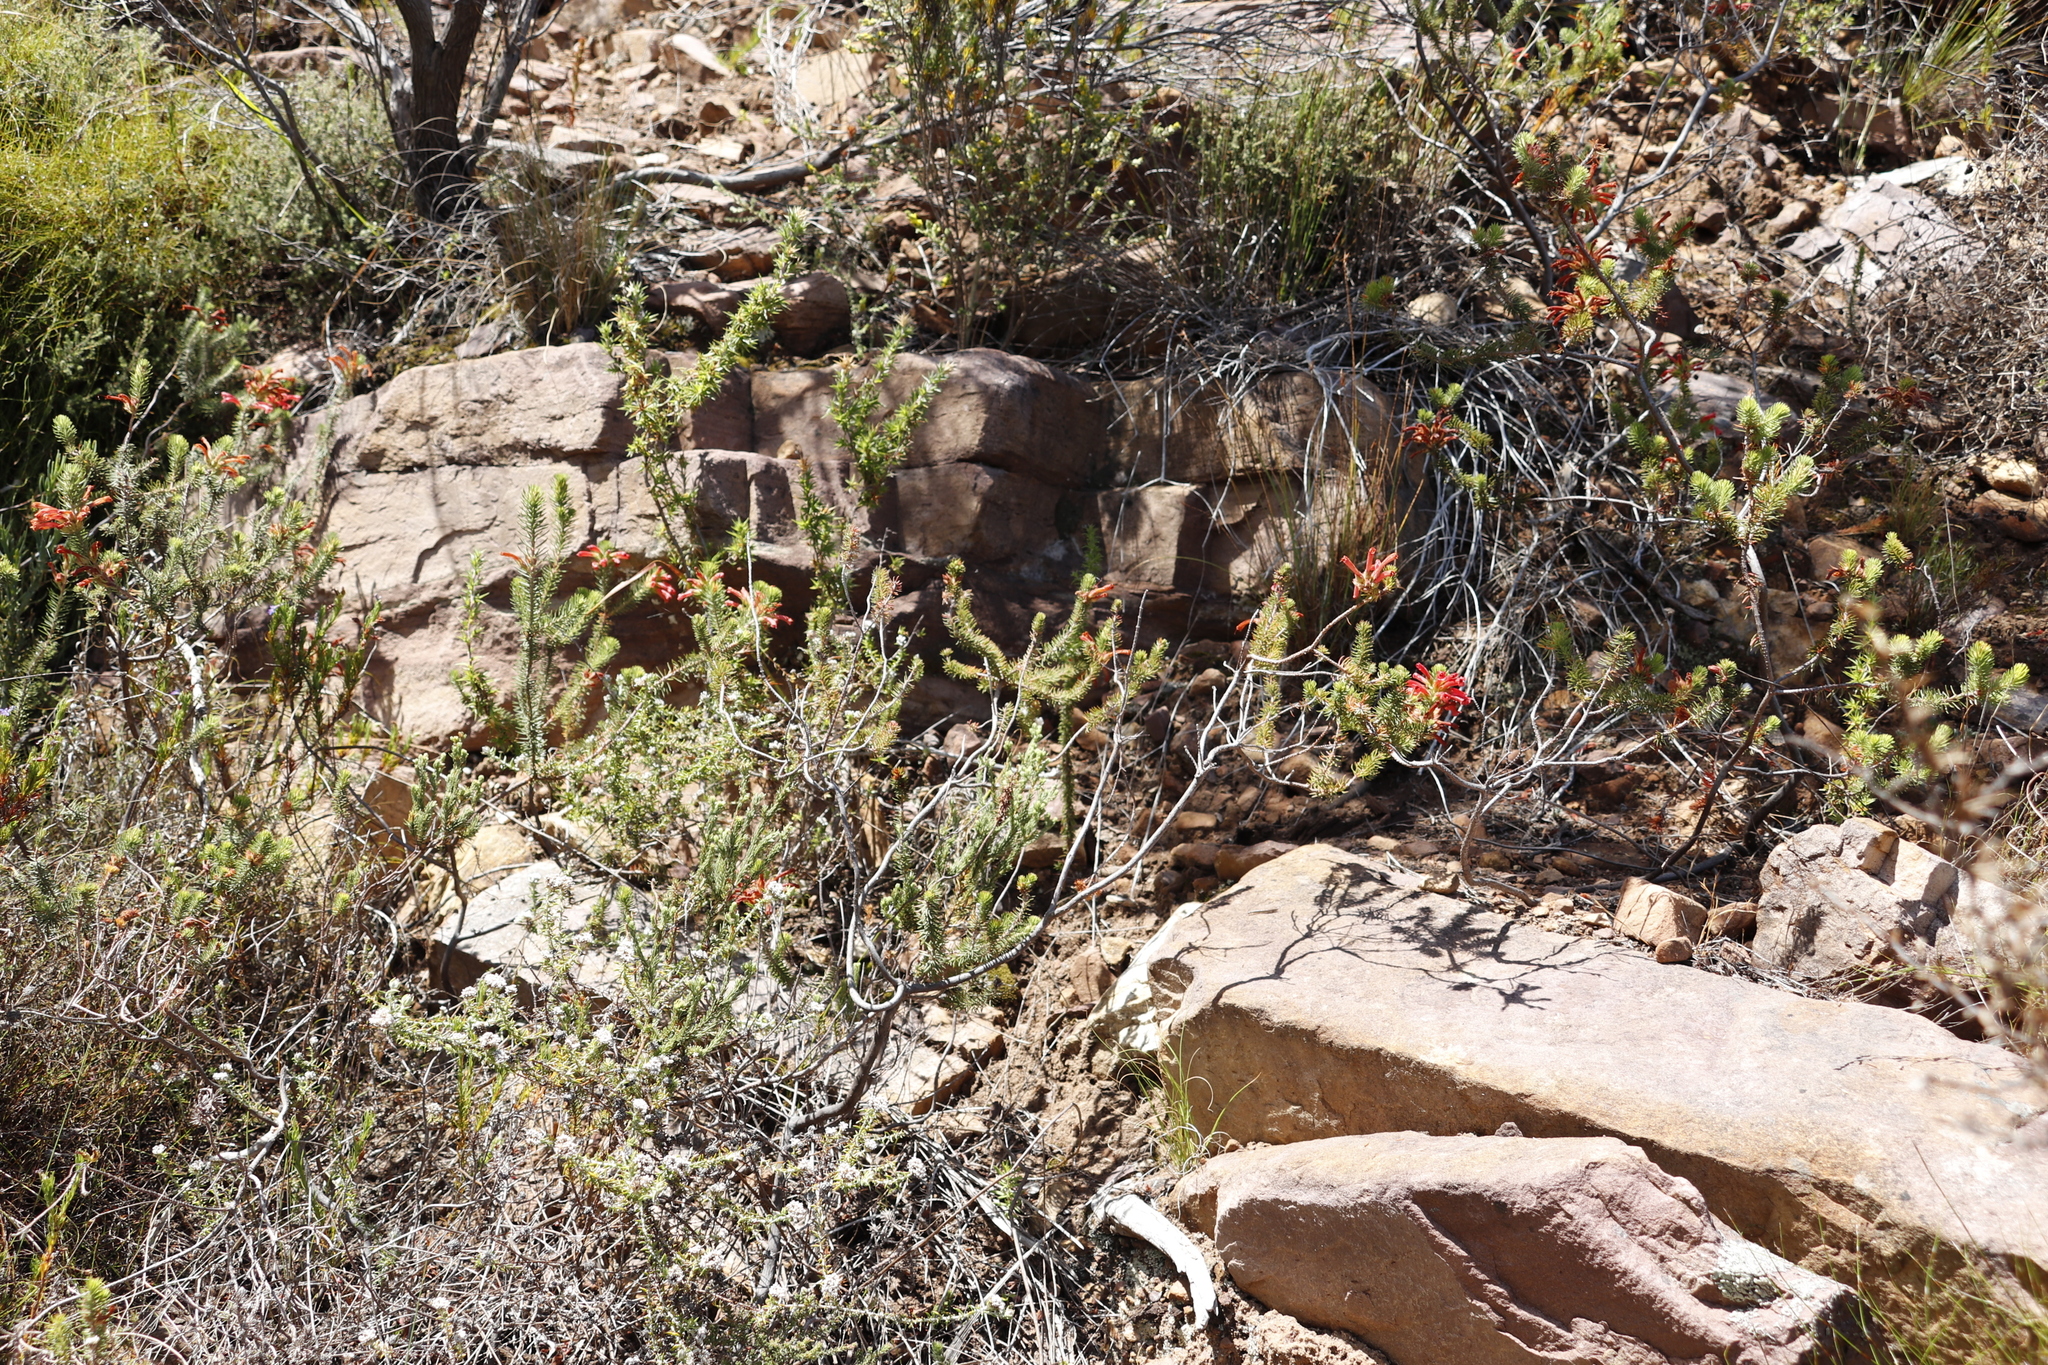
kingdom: Plantae
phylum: Tracheophyta
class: Magnoliopsida
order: Ericales
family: Ericaceae
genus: Erica
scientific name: Erica abietina
